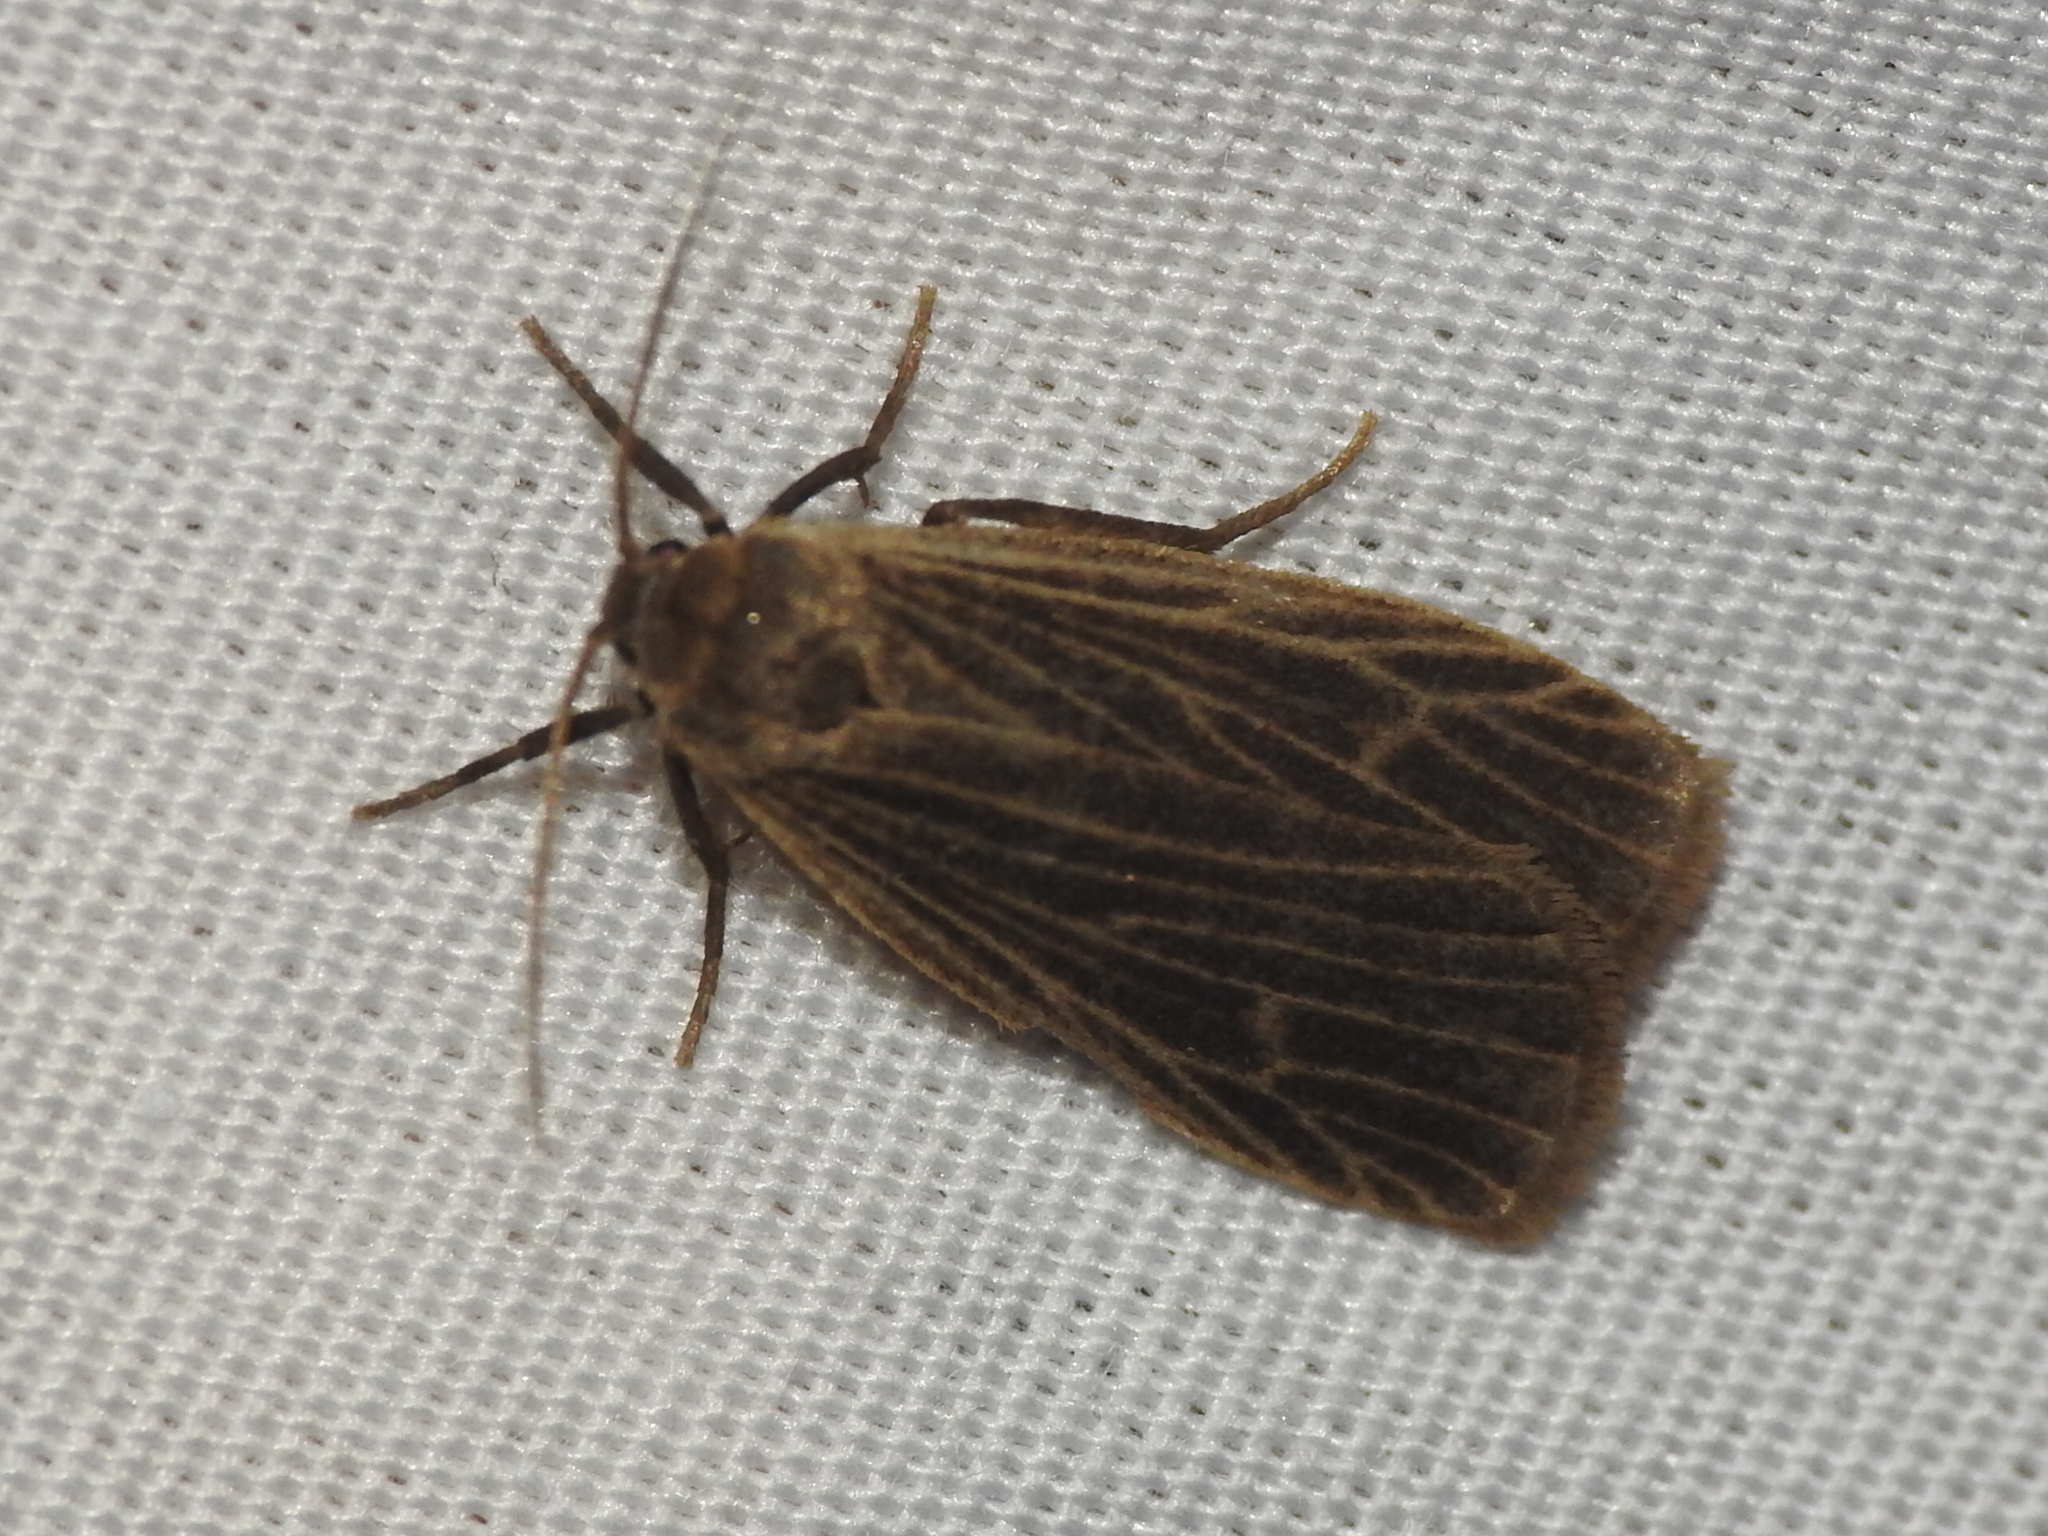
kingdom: Animalia
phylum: Arthropoda
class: Insecta
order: Lepidoptera
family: Erebidae
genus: Crambidia
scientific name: Crambidia pallida
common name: Pale lichen moth
